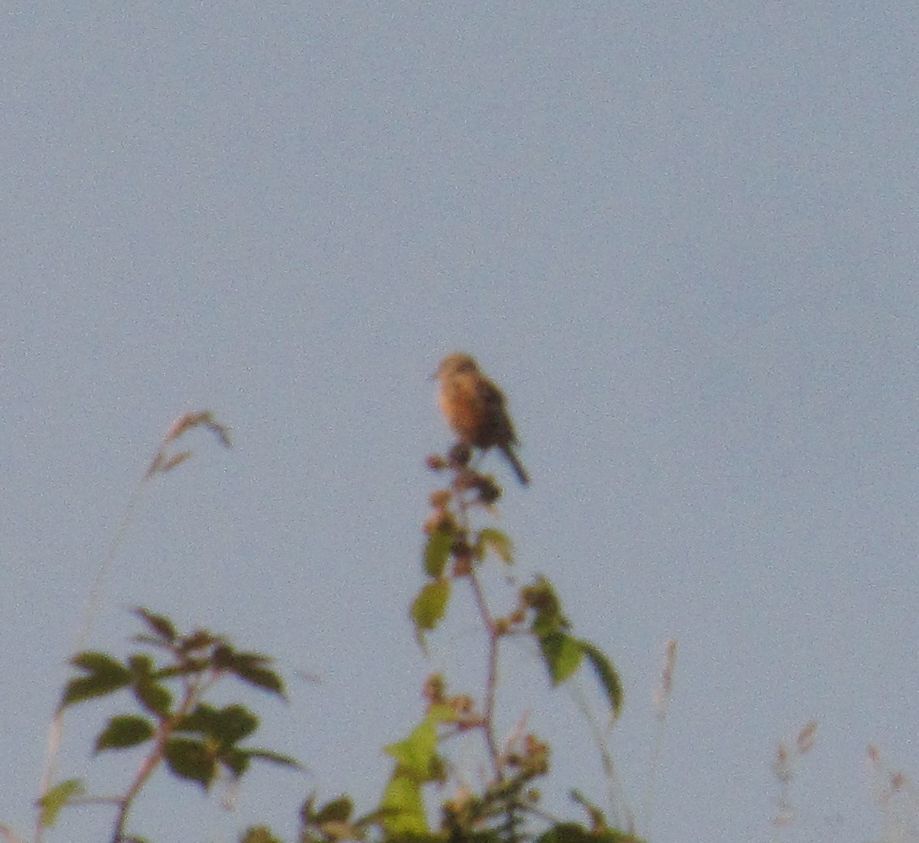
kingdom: Animalia
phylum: Chordata
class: Aves
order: Passeriformes
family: Fringillidae
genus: Linaria
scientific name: Linaria cannabina
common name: Common linnet
